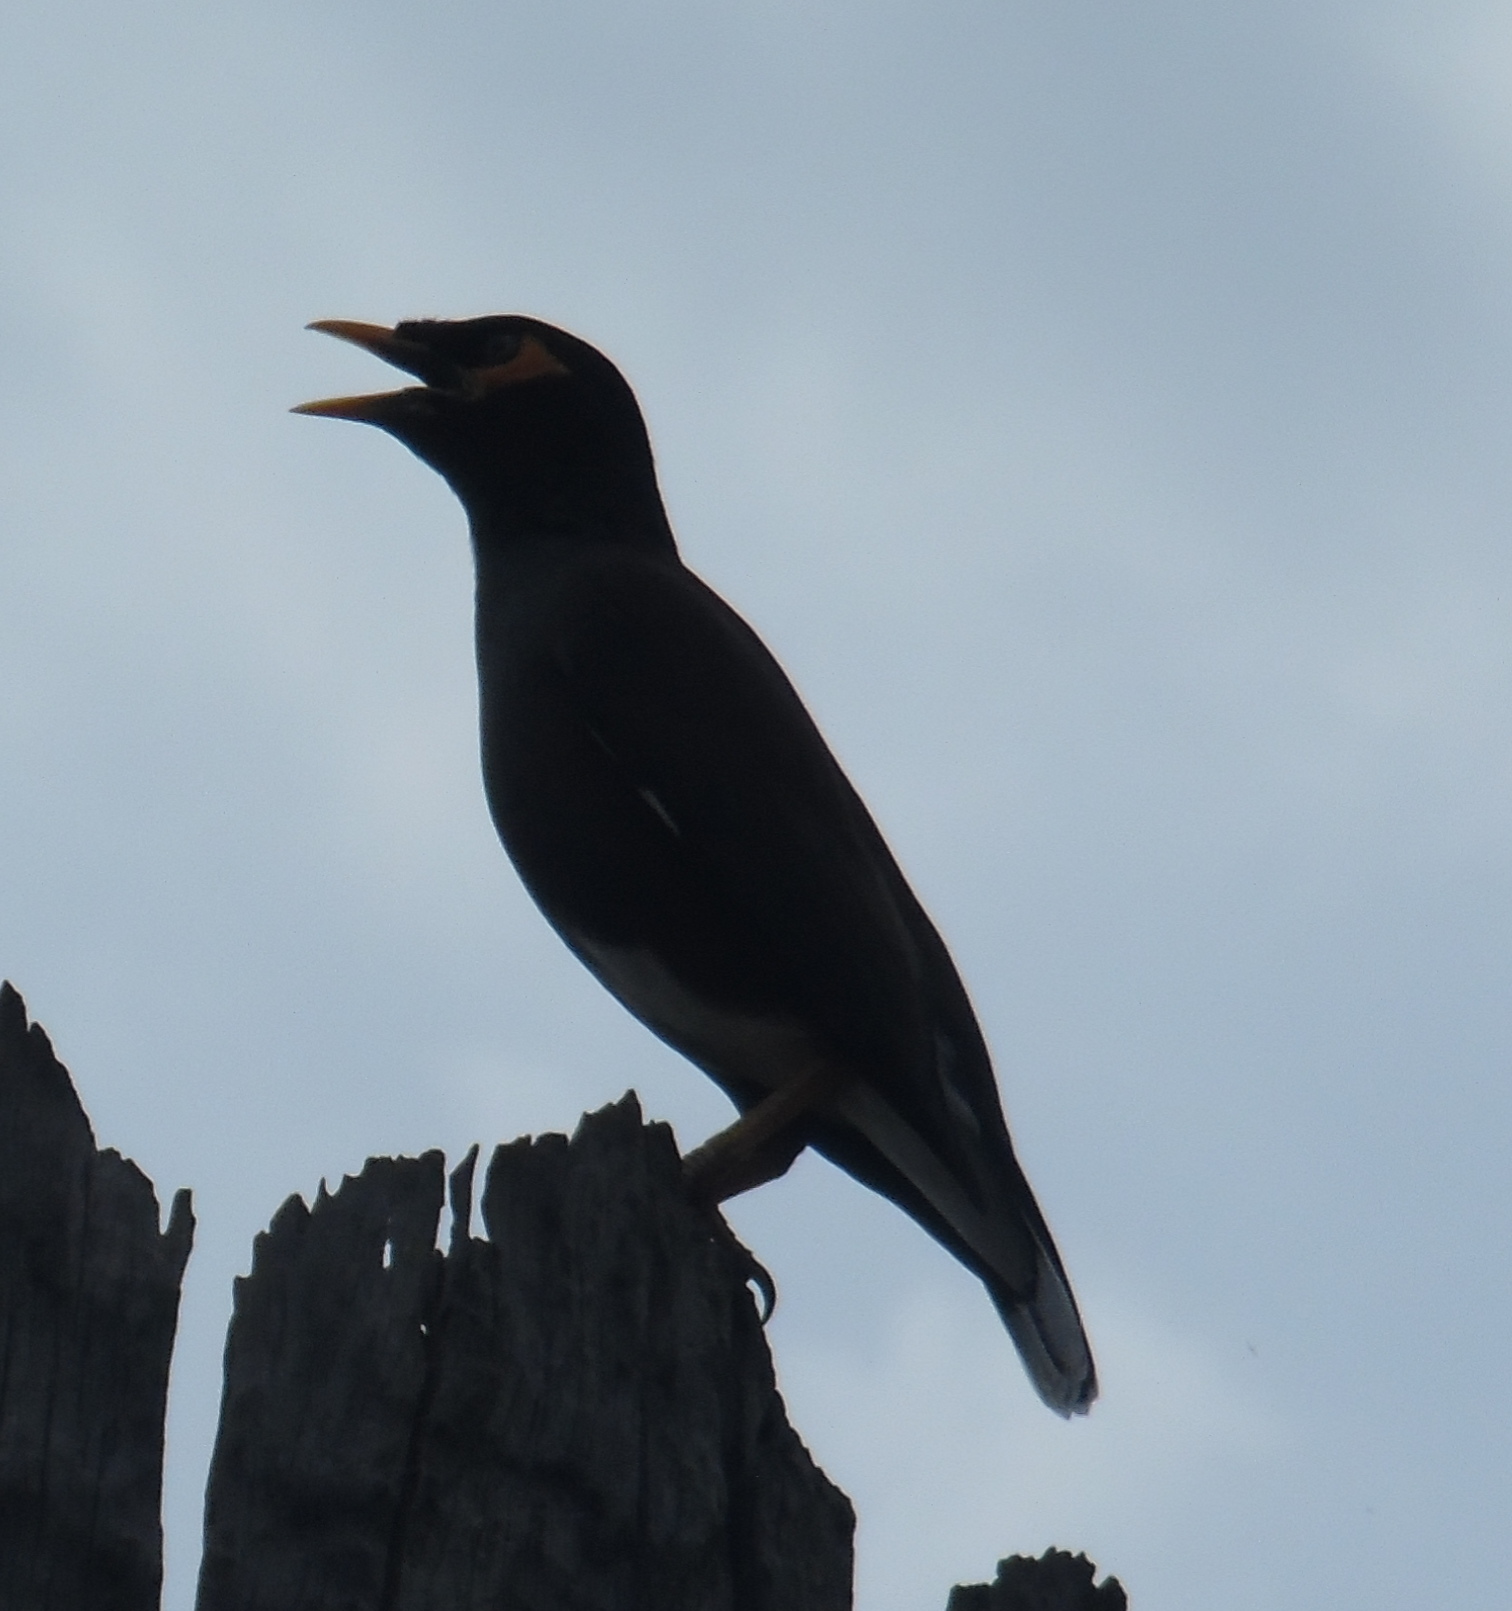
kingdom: Animalia
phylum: Chordata
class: Aves
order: Passeriformes
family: Sturnidae
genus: Acridotheres
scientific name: Acridotheres tristis
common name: Common myna
